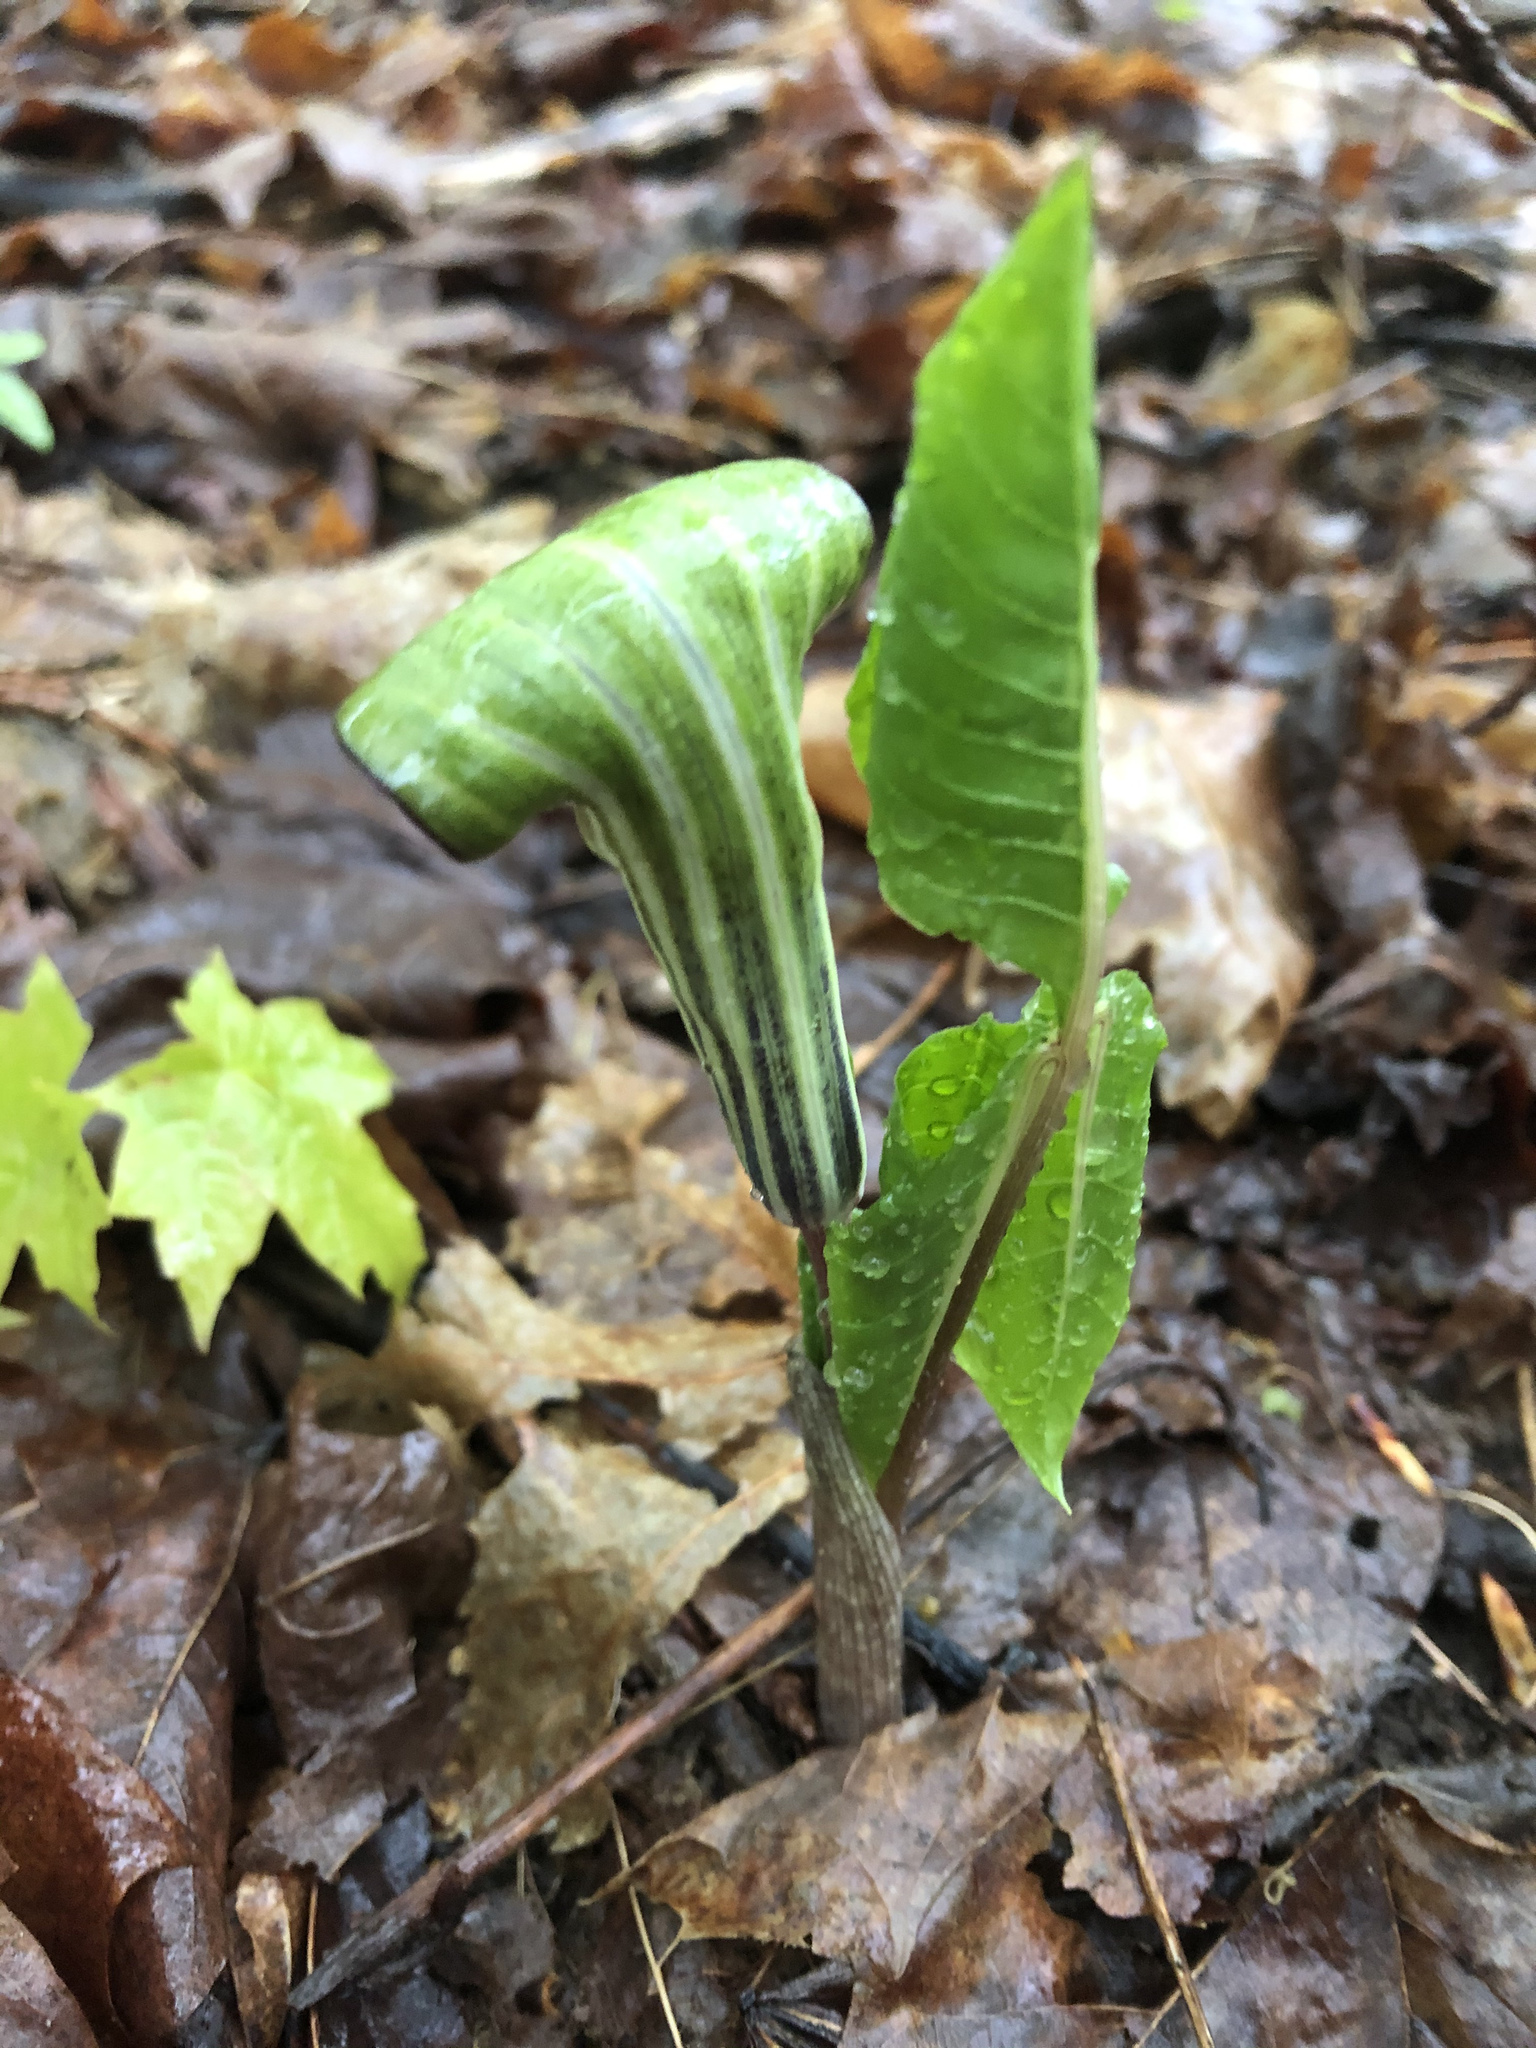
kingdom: Plantae
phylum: Tracheophyta
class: Liliopsida
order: Alismatales
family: Araceae
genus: Arisaema
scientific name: Arisaema triphyllum
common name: Jack-in-the-pulpit
